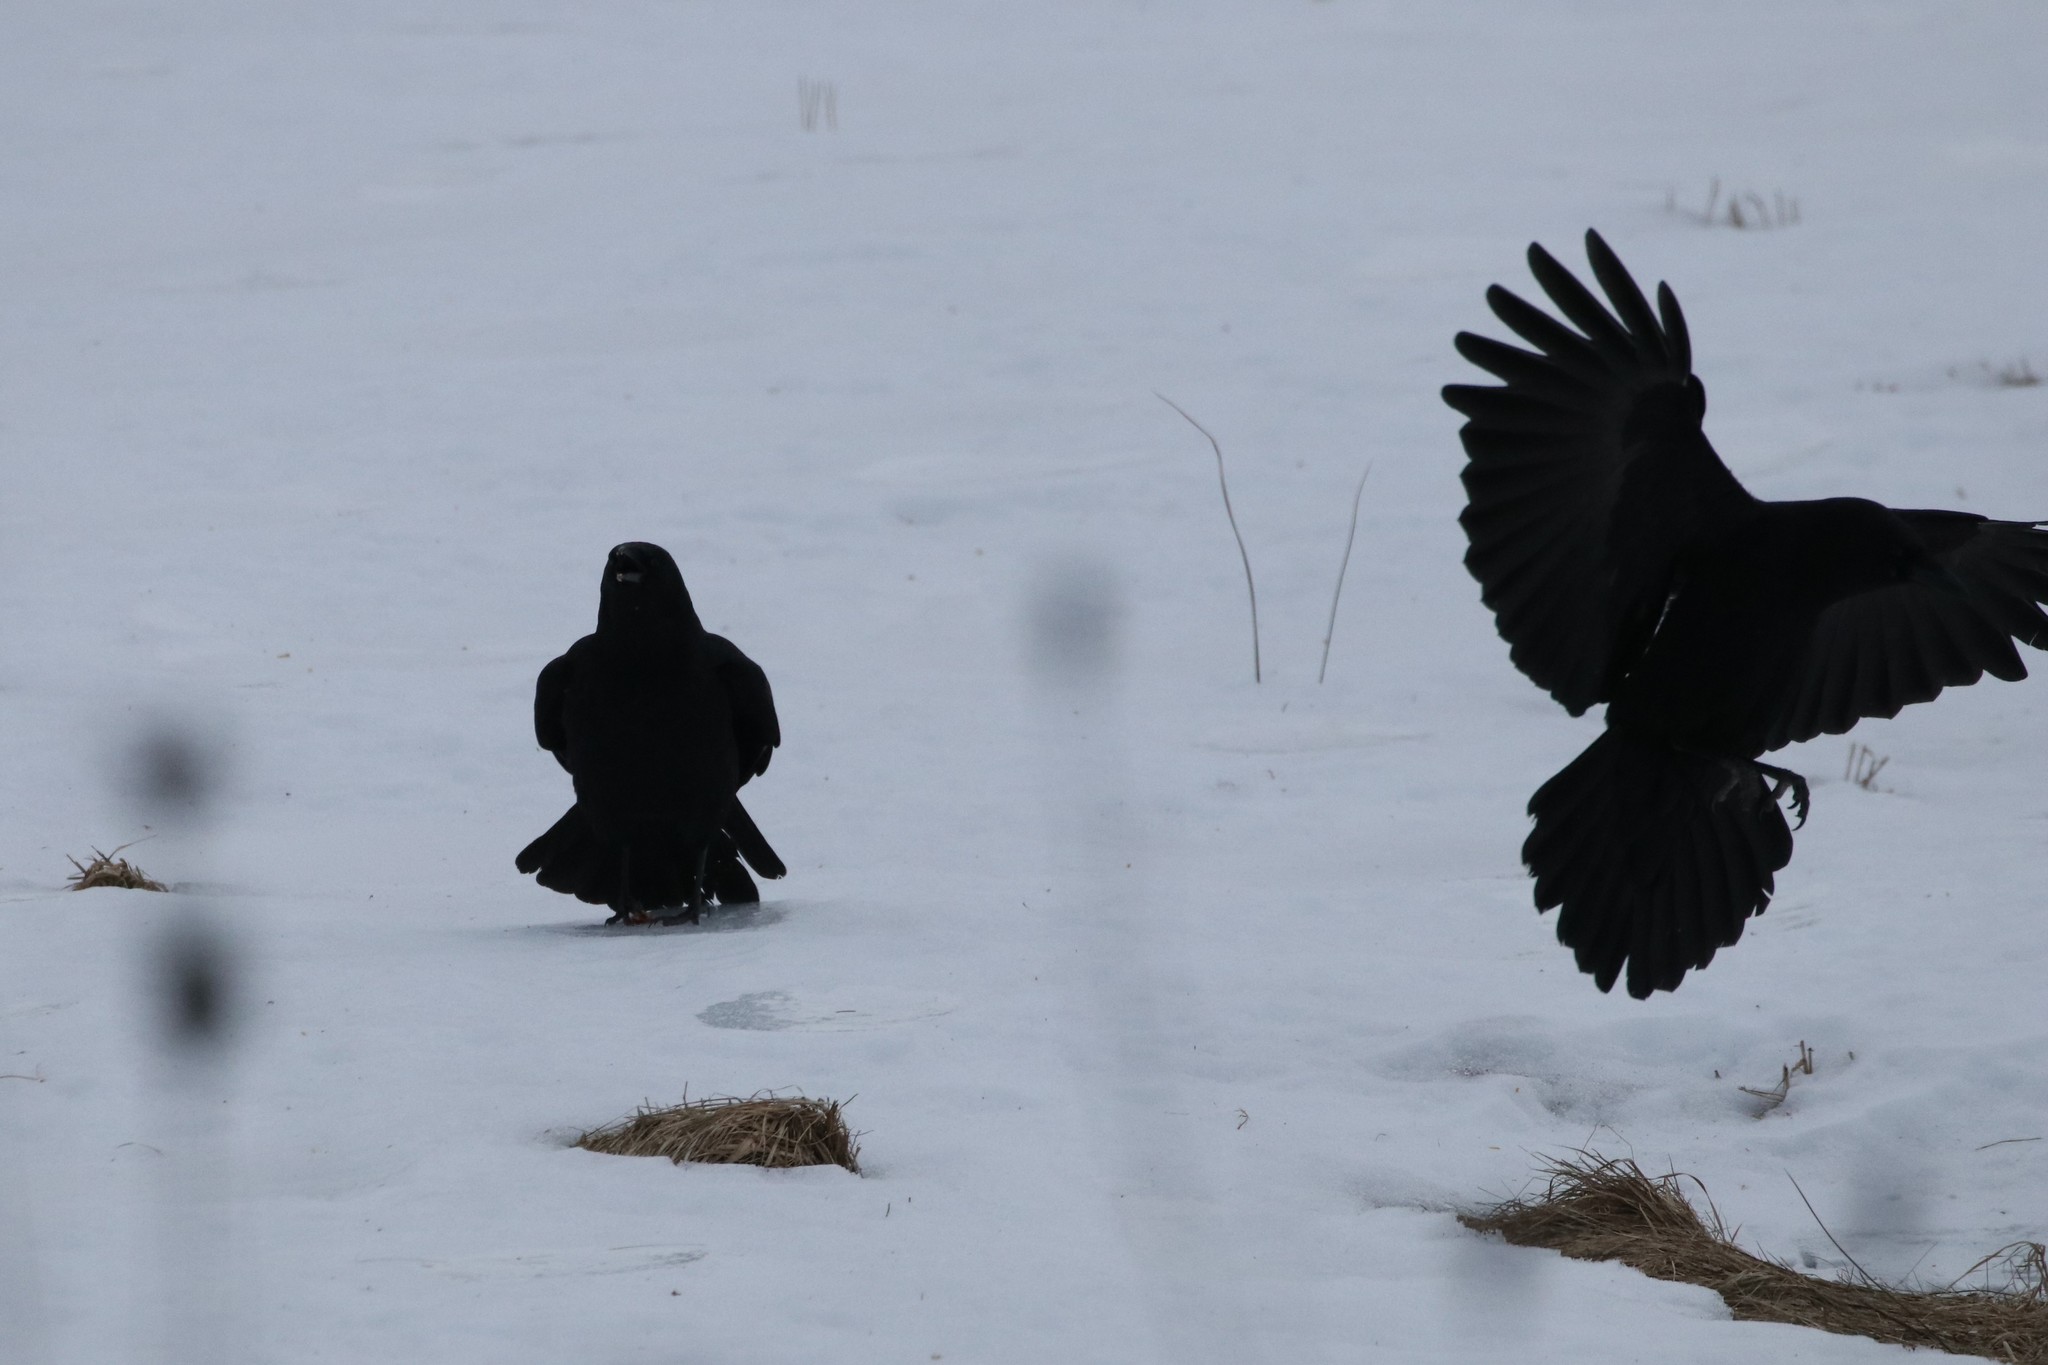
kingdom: Animalia
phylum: Chordata
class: Aves
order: Passeriformes
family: Corvidae
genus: Corvus
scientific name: Corvus brachyrhynchos
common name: American crow
